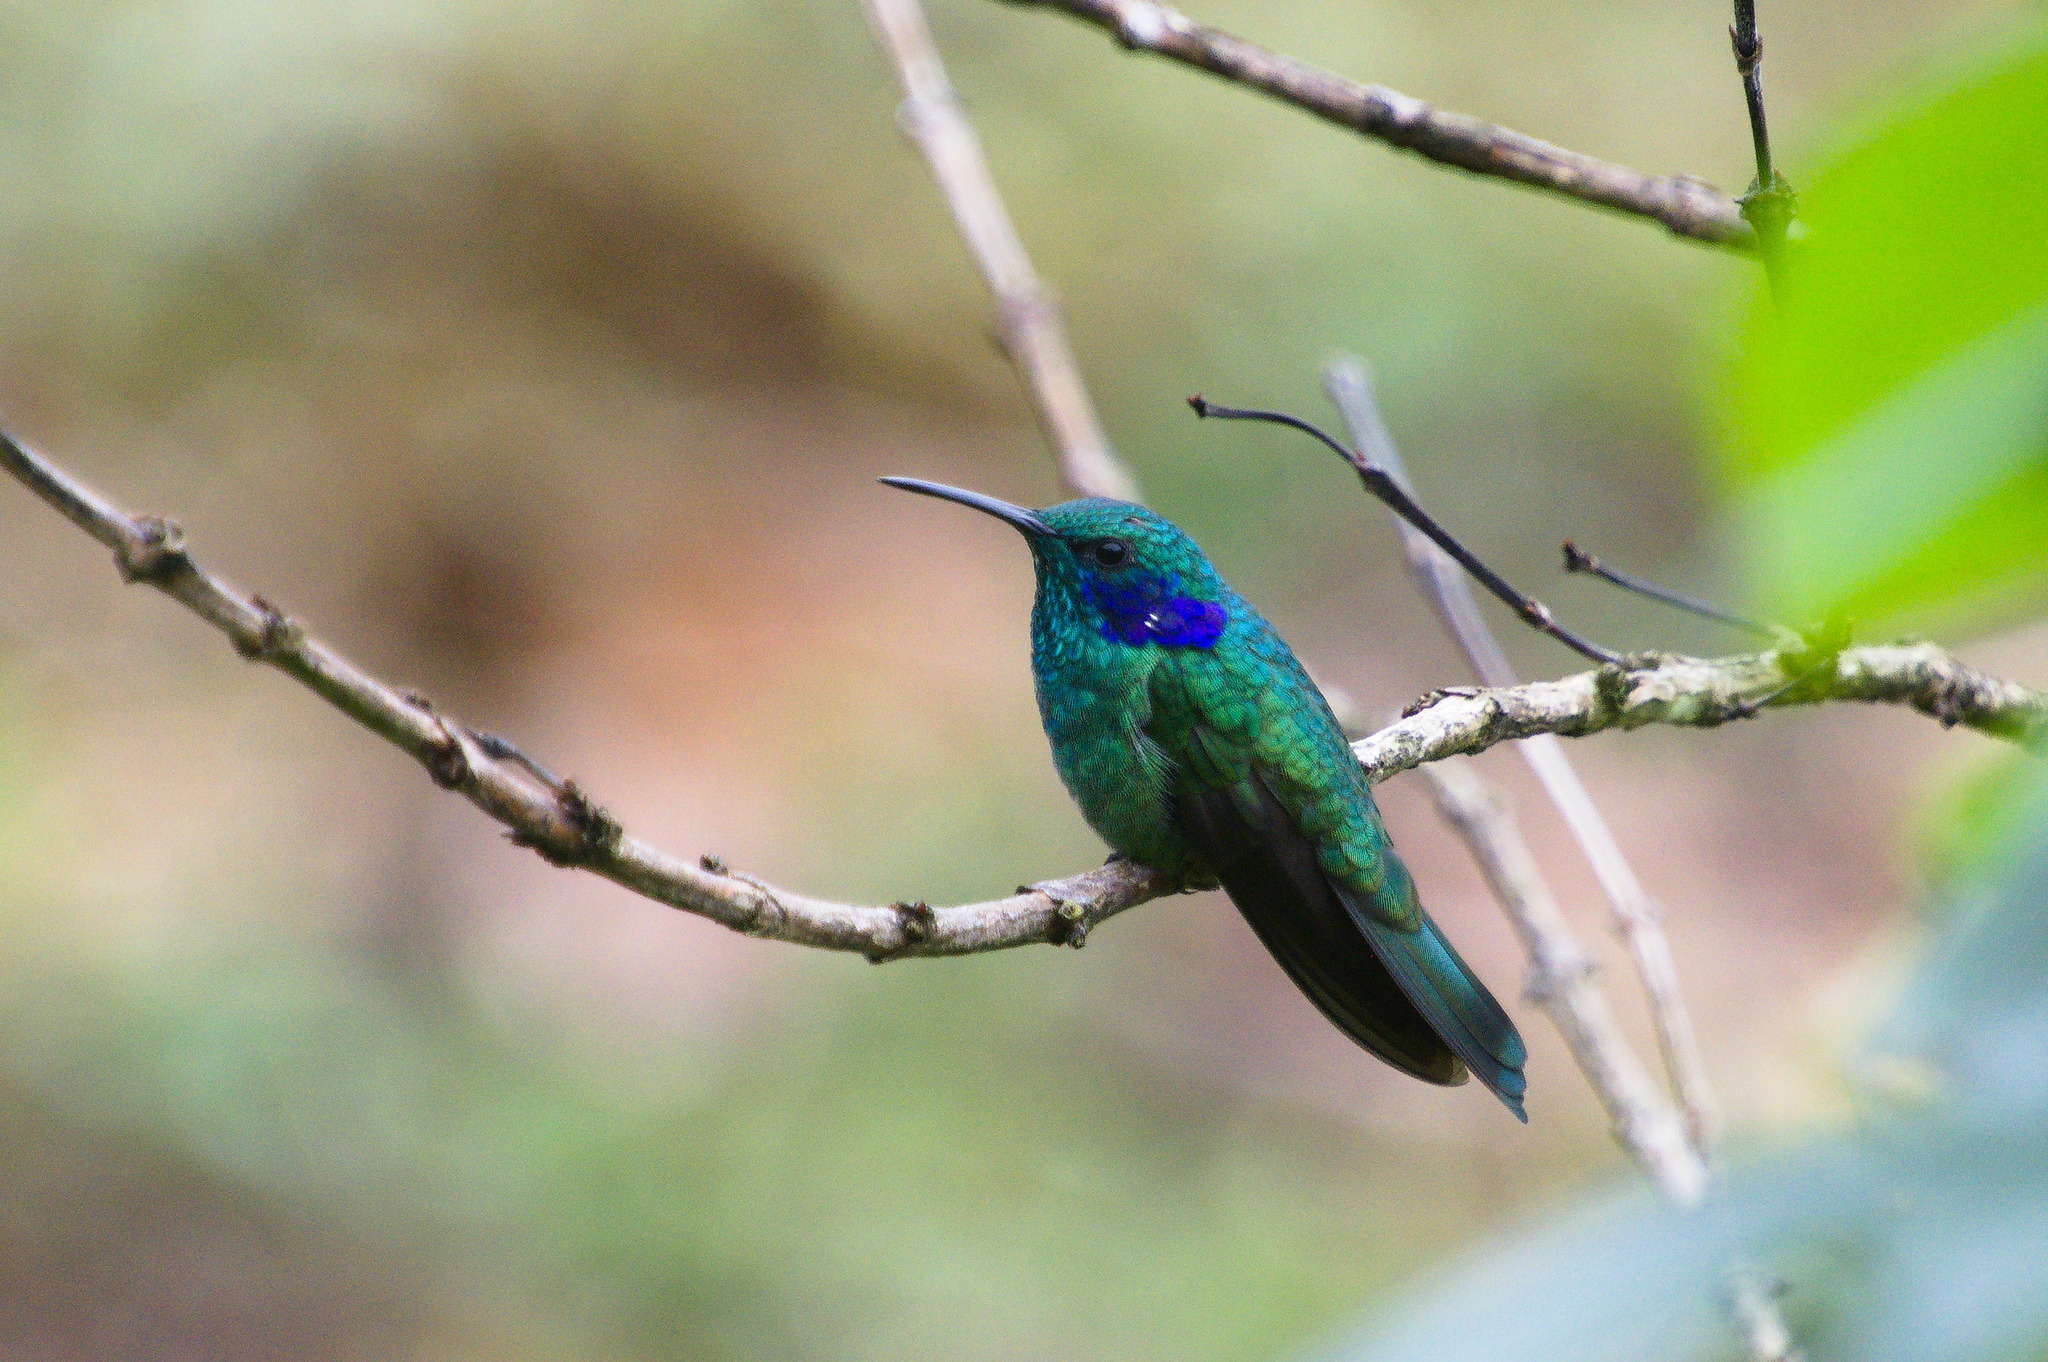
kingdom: Animalia
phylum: Chordata
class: Aves
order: Apodiformes
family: Trochilidae
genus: Colibri
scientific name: Colibri cyanotus
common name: Lesser violetear
